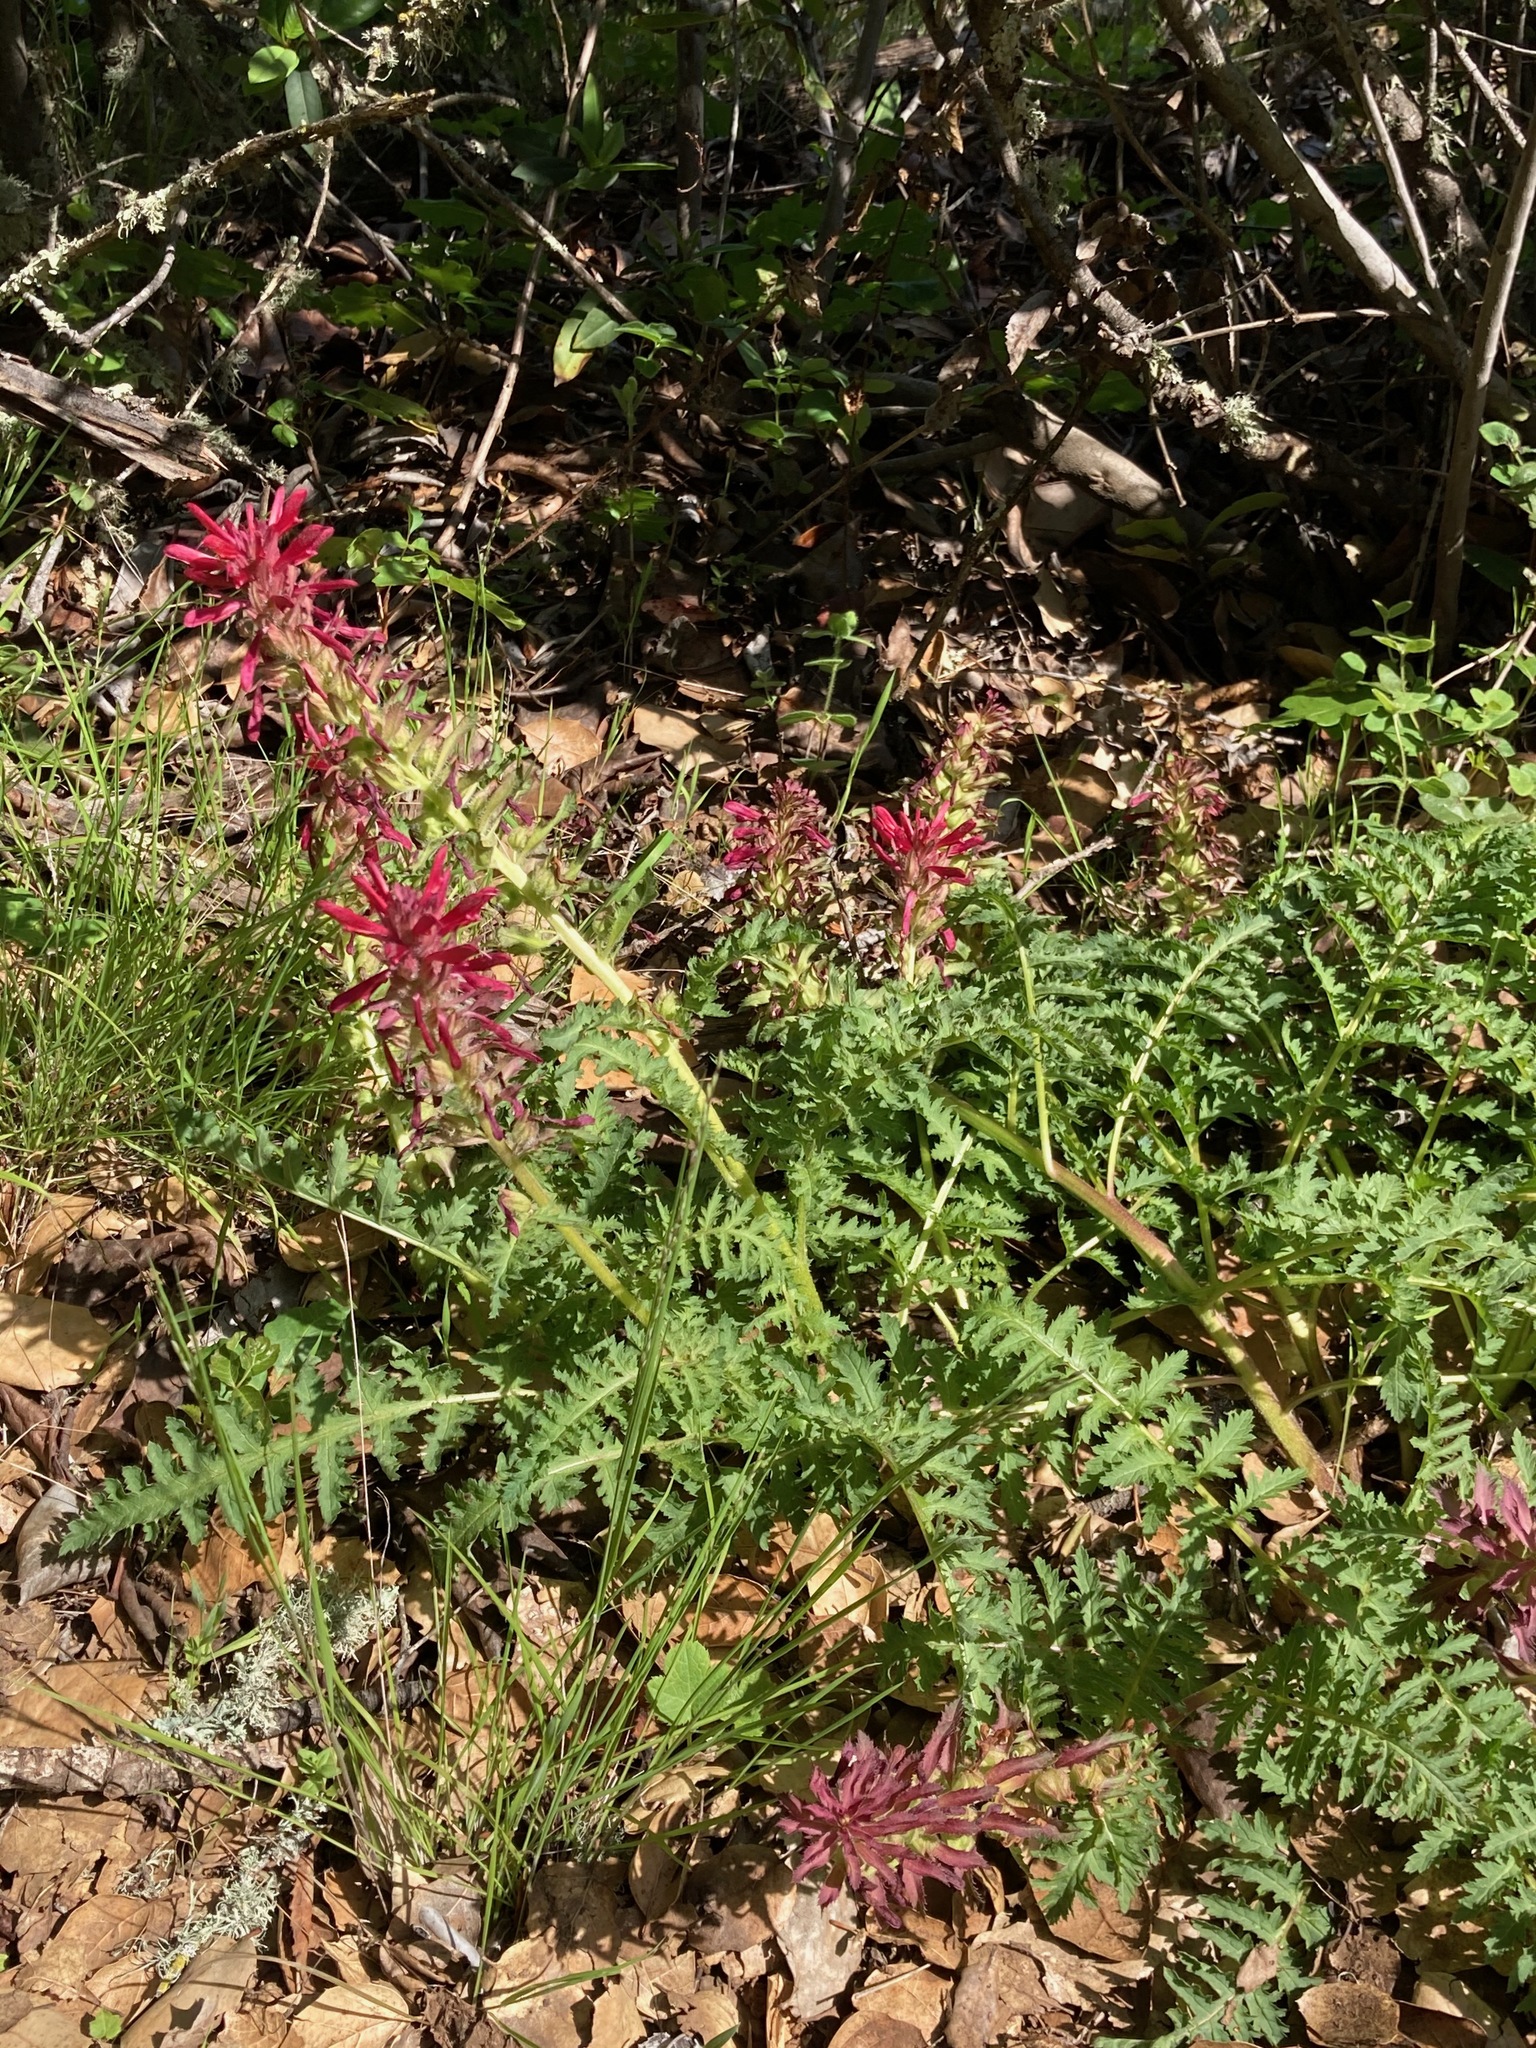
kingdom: Plantae
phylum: Tracheophyta
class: Magnoliopsida
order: Lamiales
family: Orobanchaceae
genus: Pedicularis
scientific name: Pedicularis densiflora
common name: Indian warrior
